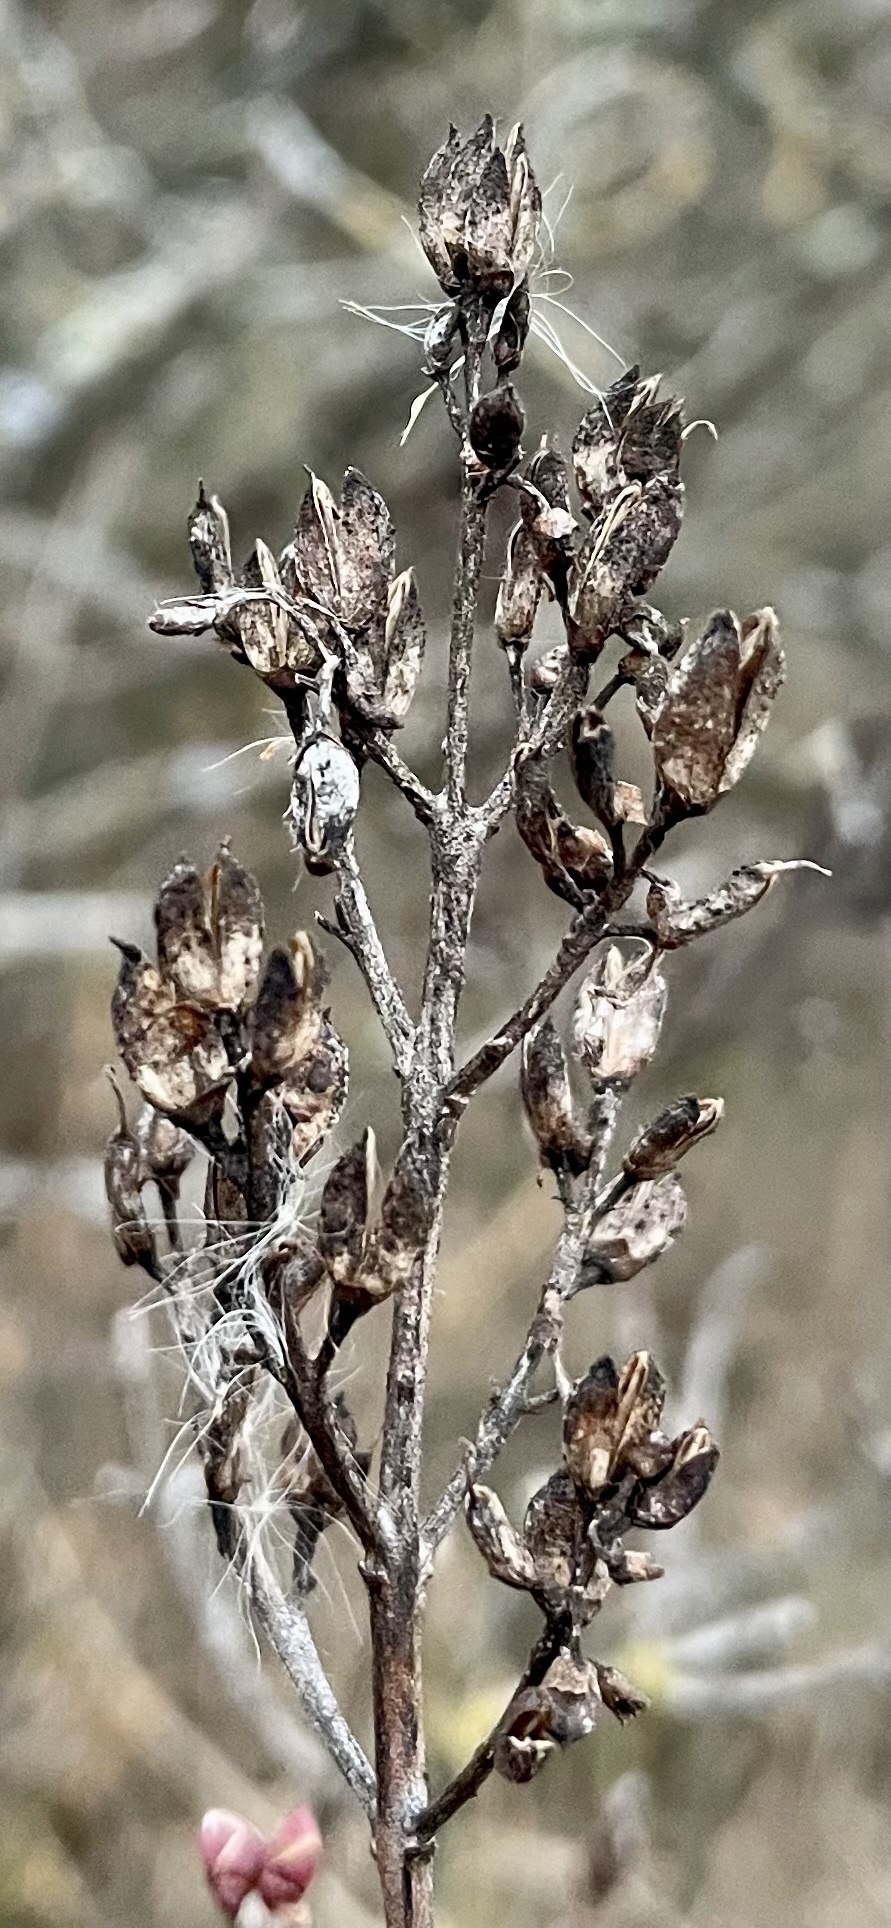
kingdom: Plantae
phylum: Tracheophyta
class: Magnoliopsida
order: Lamiales
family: Oleaceae
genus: Syringa
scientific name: Syringa vulgaris
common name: Common lilac
